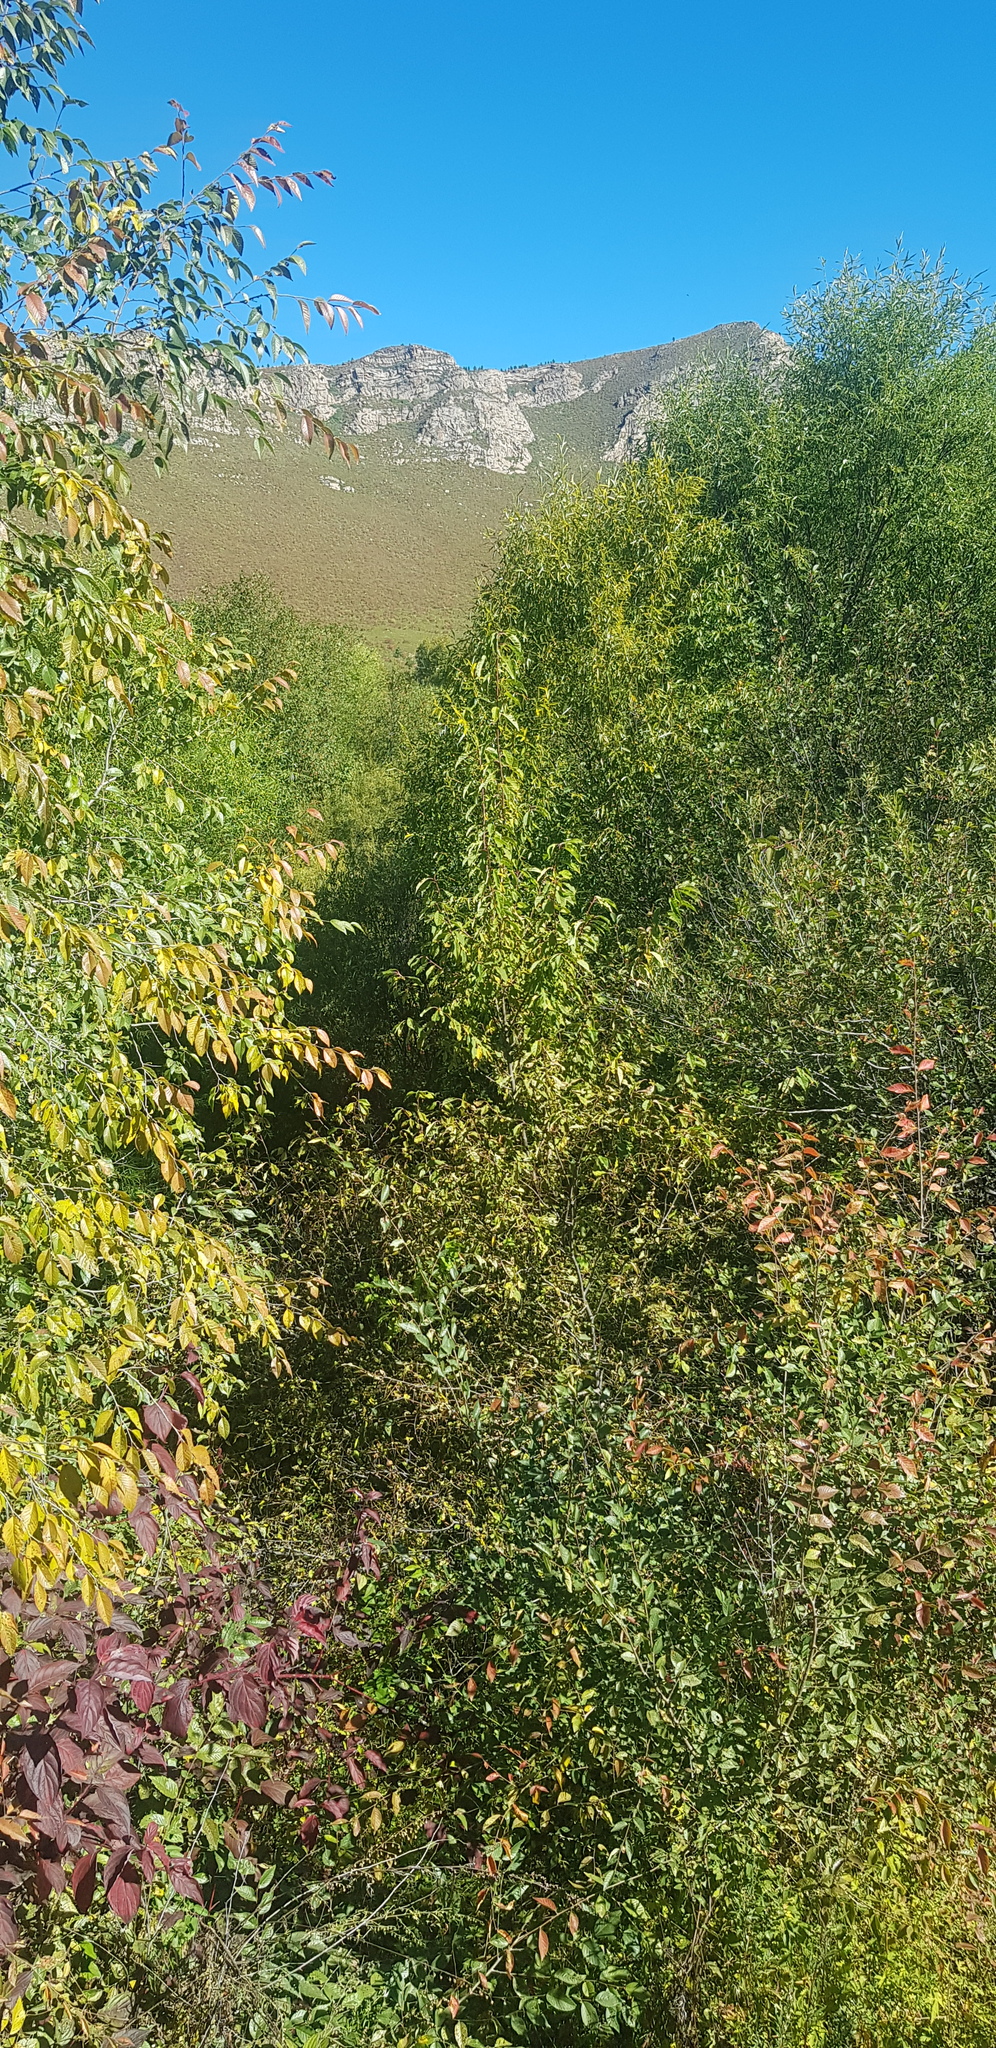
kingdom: Plantae
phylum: Tracheophyta
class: Magnoliopsida
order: Rosales
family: Ulmaceae
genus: Ulmus
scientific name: Ulmus davidiana
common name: Japanese elm
